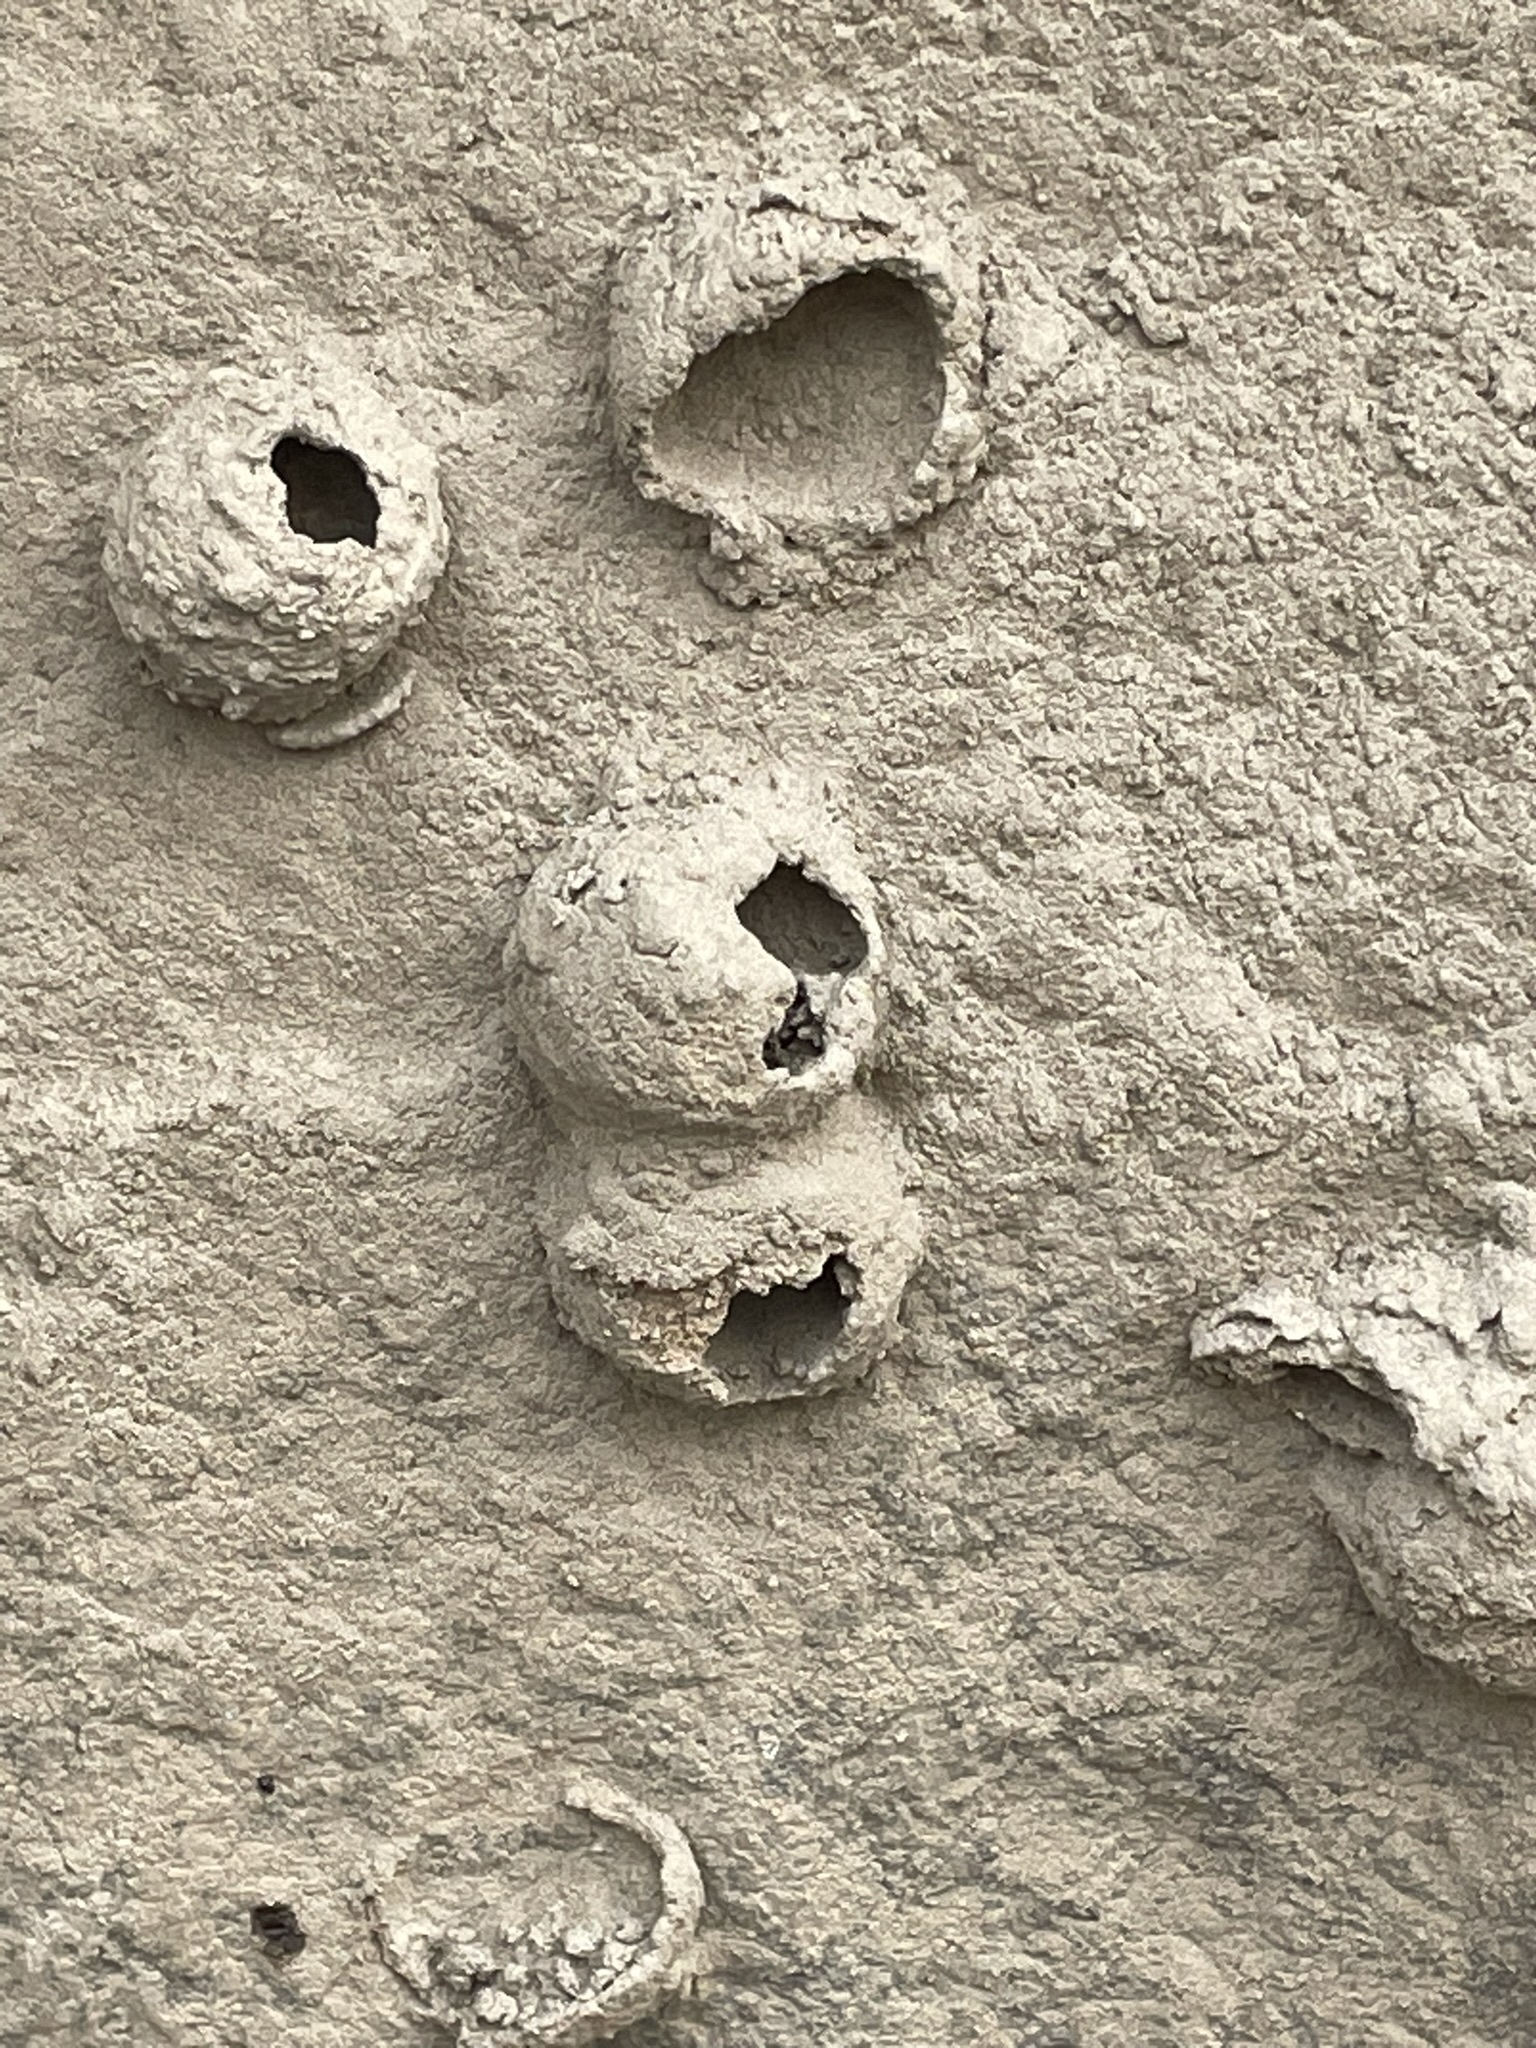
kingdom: Animalia
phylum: Arthropoda
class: Insecta
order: Hymenoptera
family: Eumenidae
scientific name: Eumenidae
